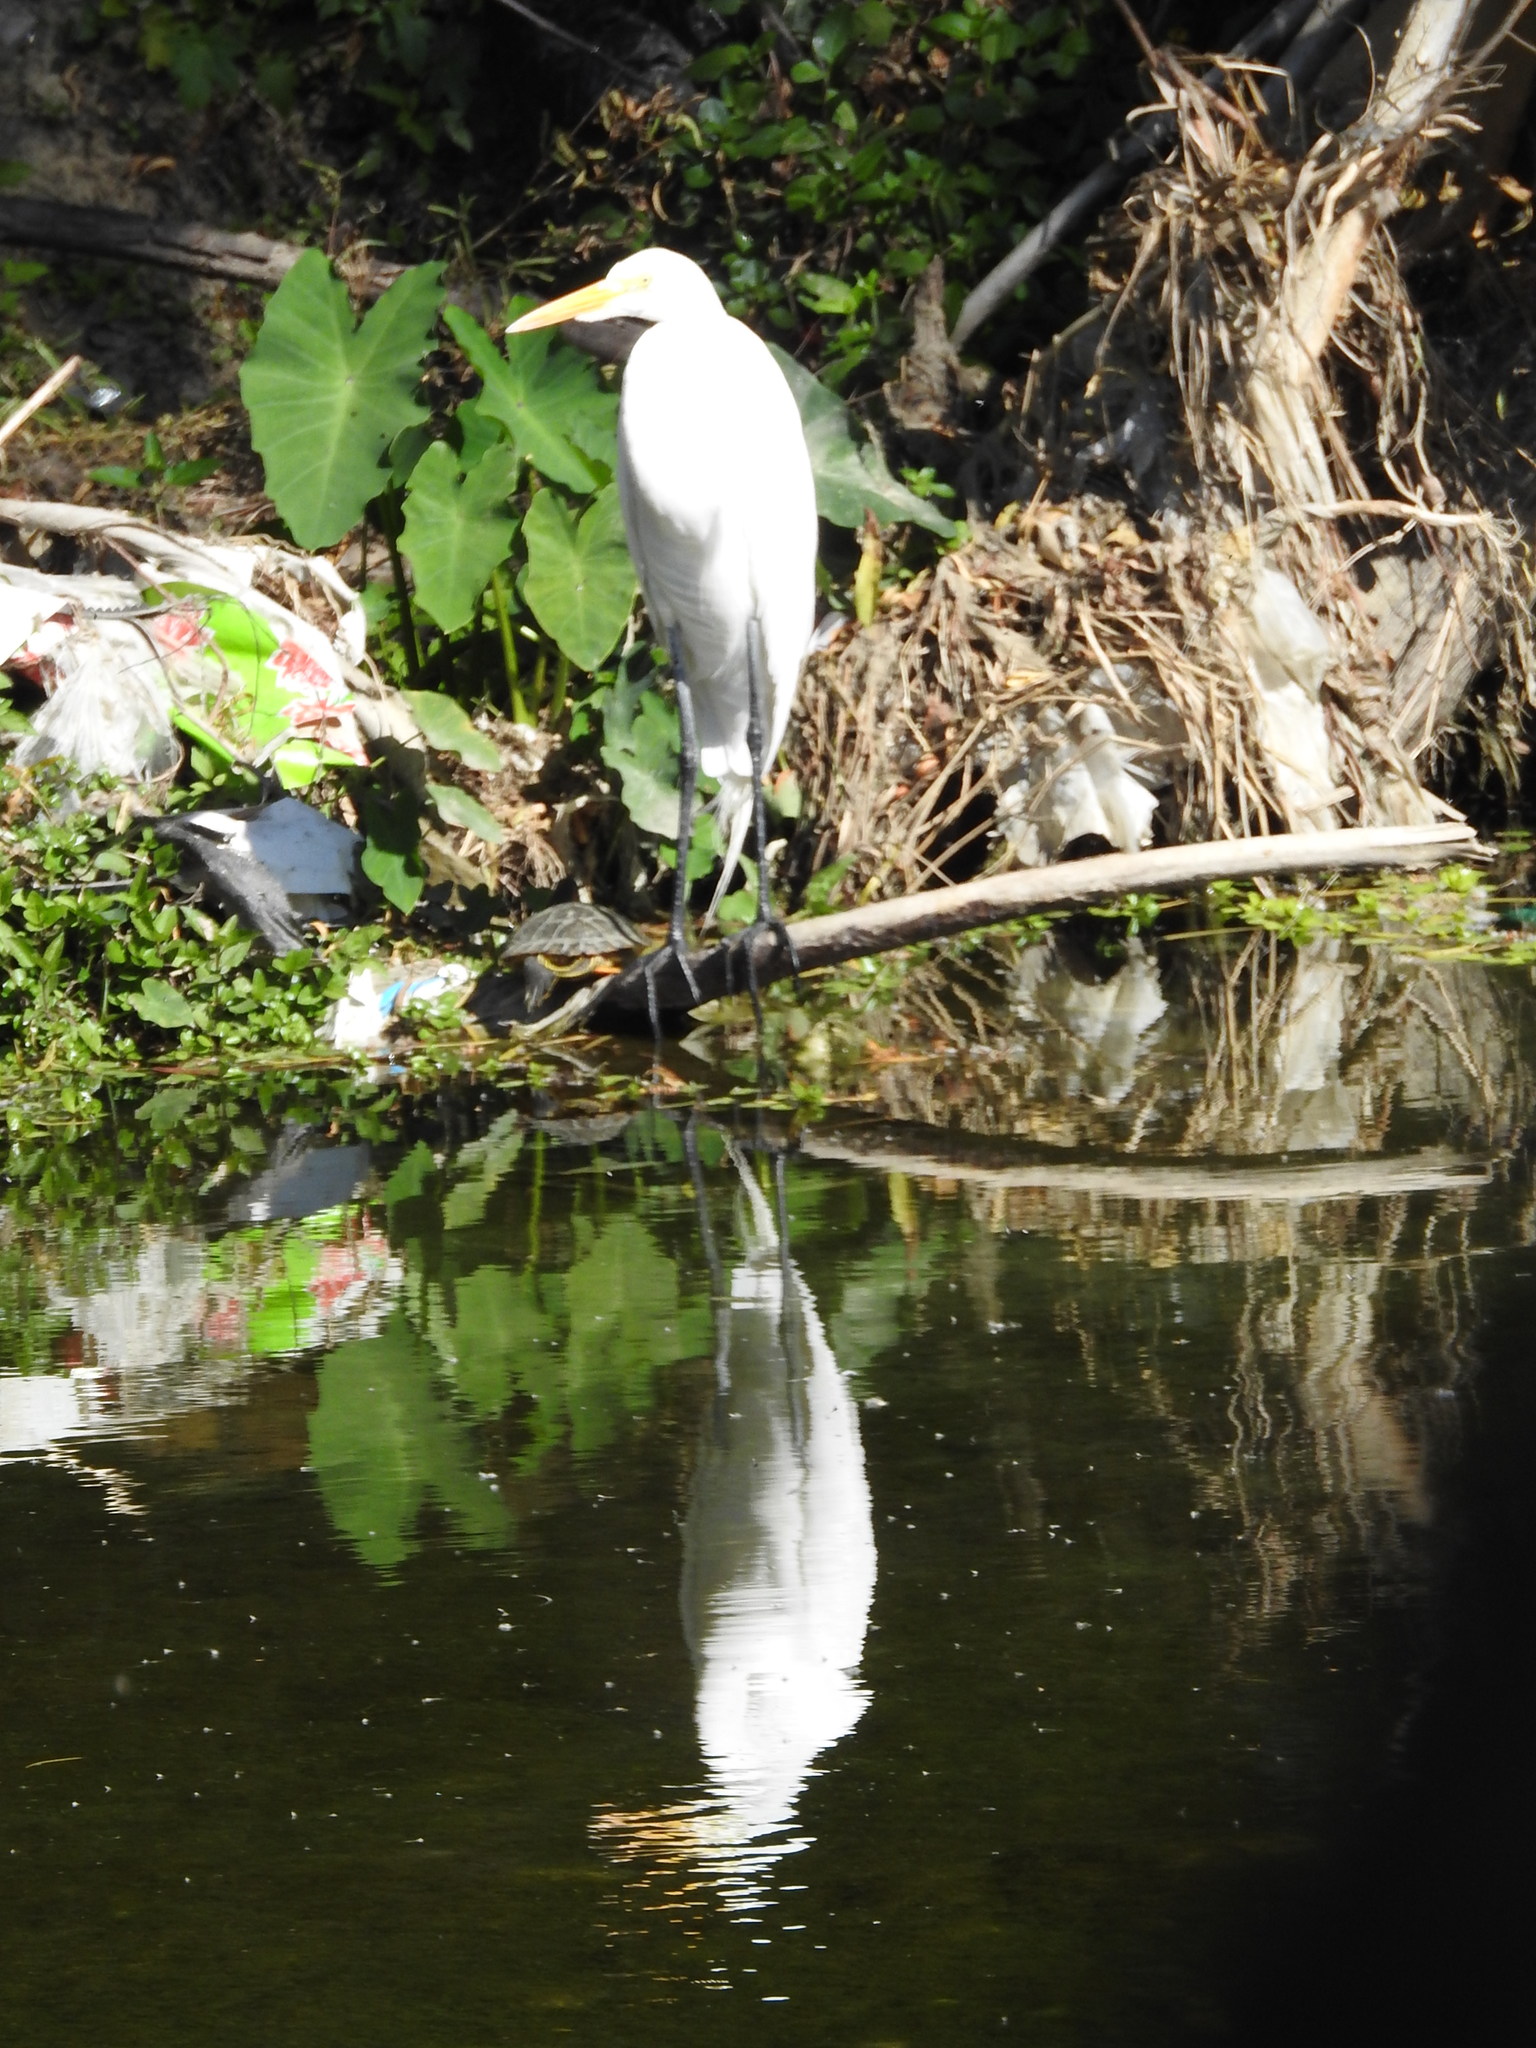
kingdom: Animalia
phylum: Chordata
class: Aves
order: Pelecaniformes
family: Ardeidae
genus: Ardea
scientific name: Ardea alba
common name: Great egret
